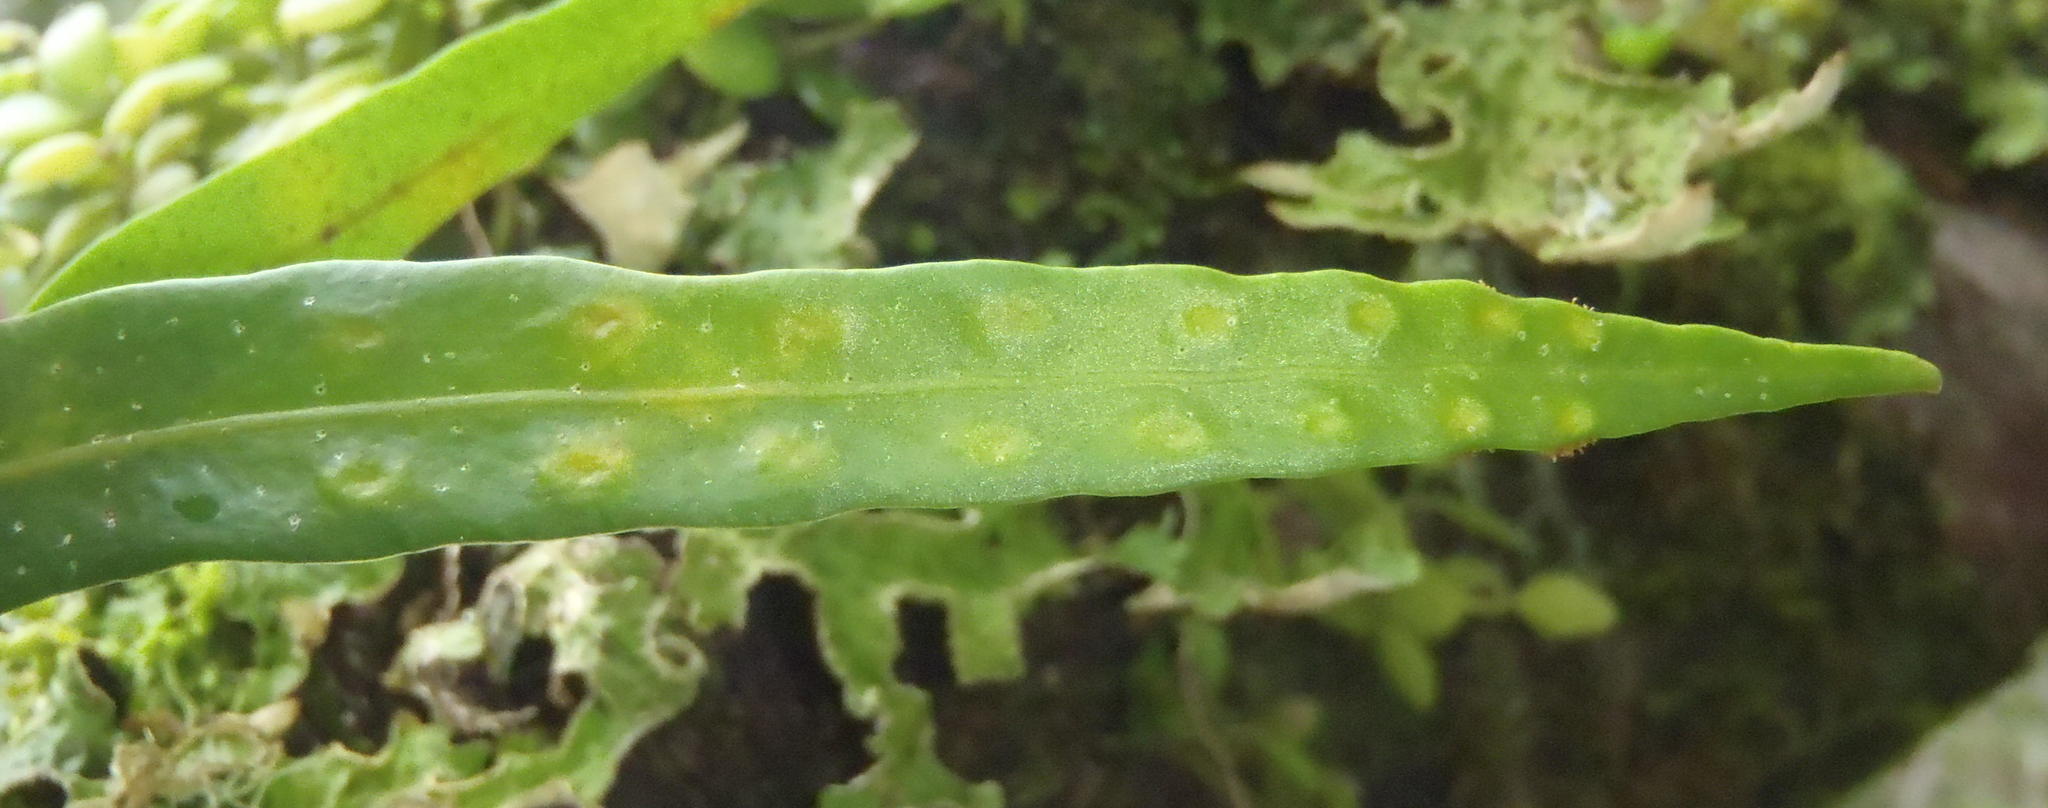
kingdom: Plantae
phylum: Tracheophyta
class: Polypodiopsida
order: Polypodiales
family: Polypodiaceae
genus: Pleopeltis
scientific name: Pleopeltis macrocarpa
